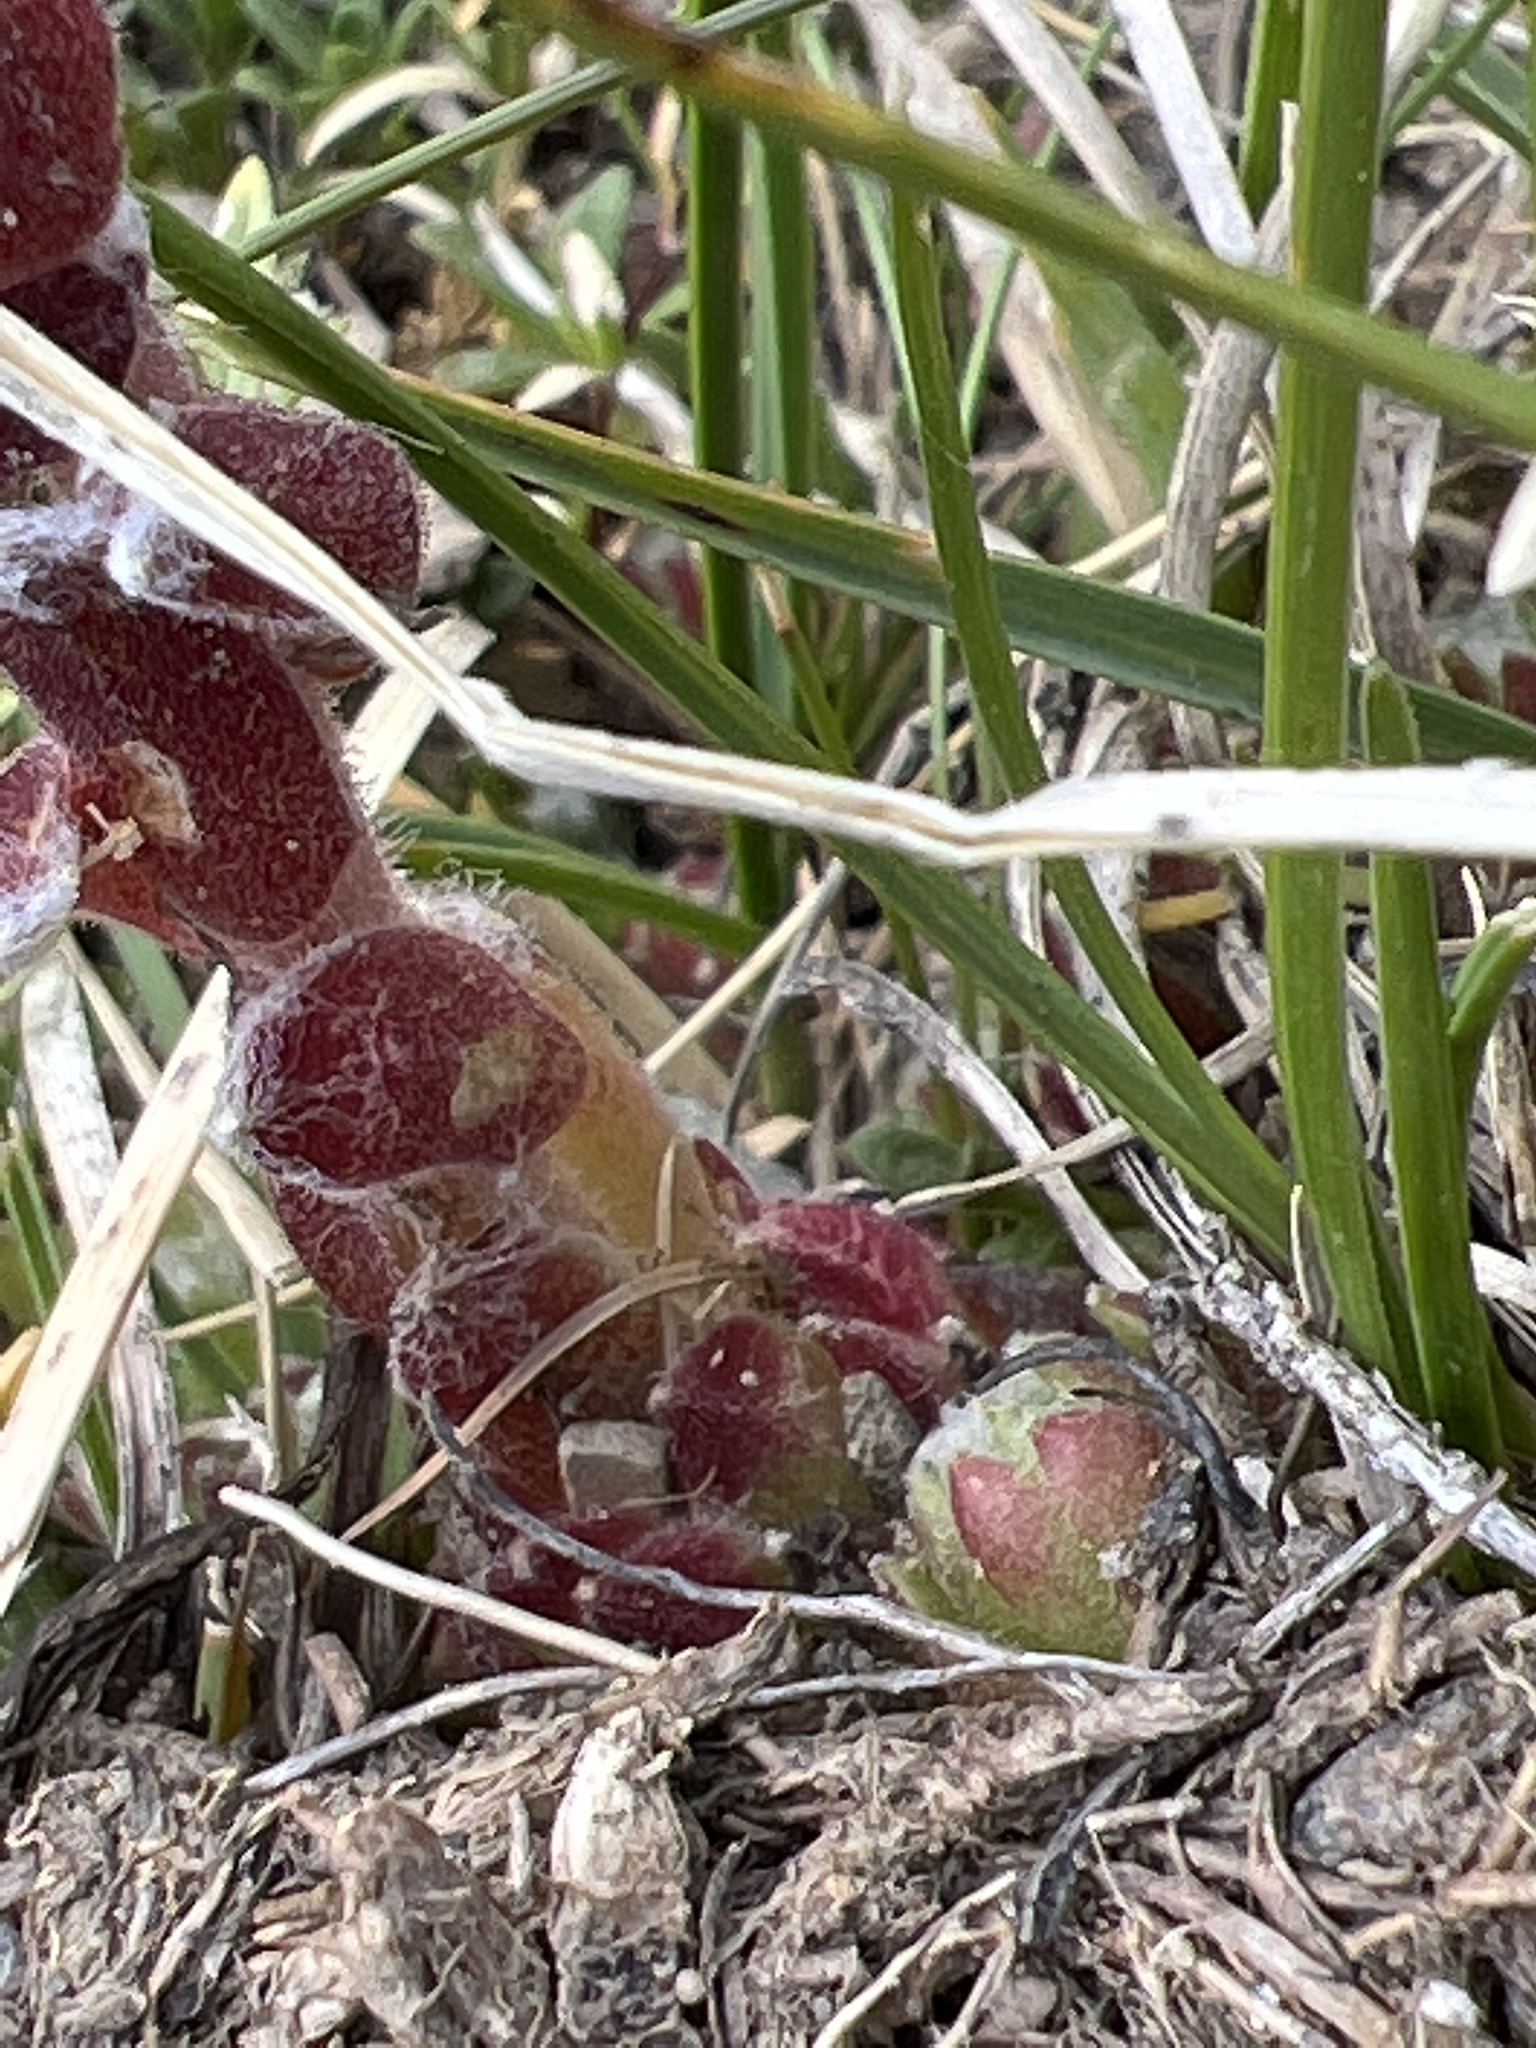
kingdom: Plantae
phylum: Tracheophyta
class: Magnoliopsida
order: Saxifragales
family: Crassulaceae
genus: Sempervivum
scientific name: Sempervivum arachnoideum
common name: Cobweb house-leek
